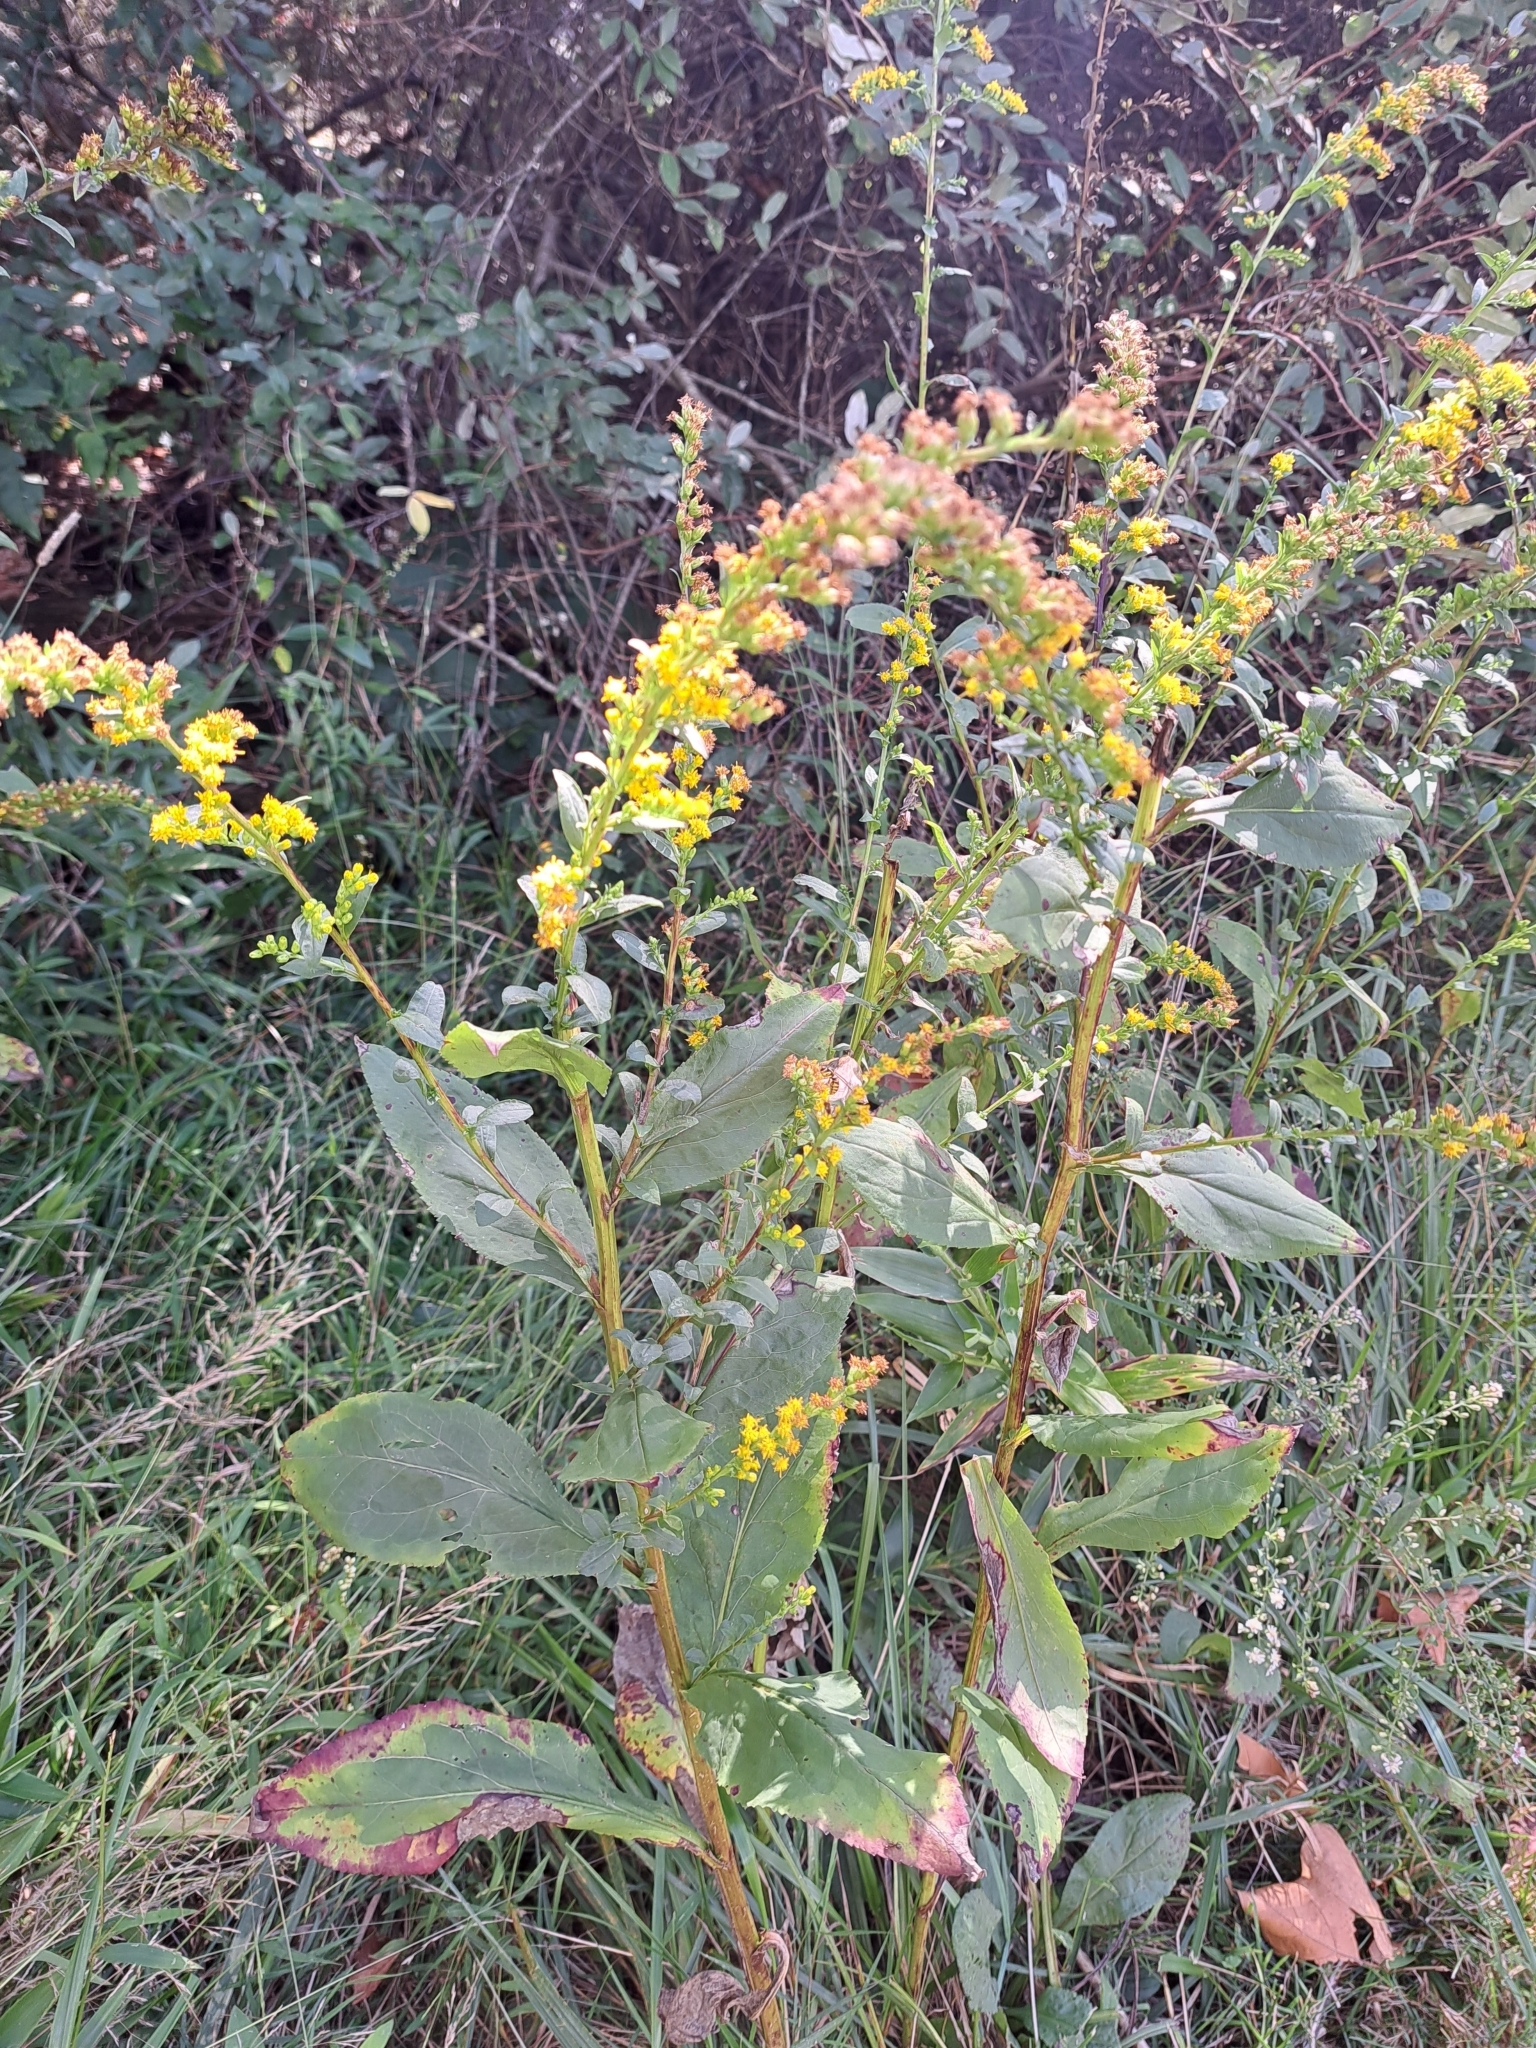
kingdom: Plantae
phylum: Tracheophyta
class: Magnoliopsida
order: Asterales
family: Asteraceae
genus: Solidago
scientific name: Solidago patula
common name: Rough-leaf goldenrod
